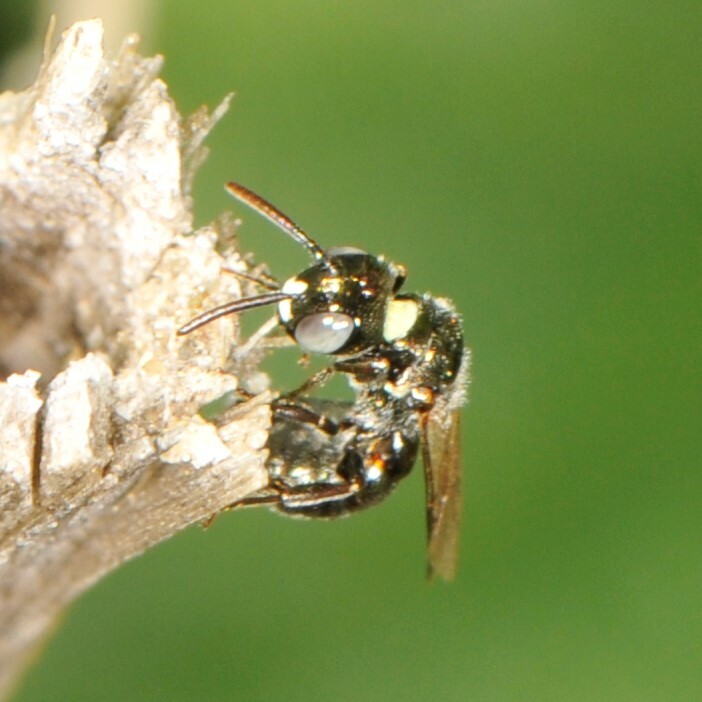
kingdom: Animalia
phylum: Arthropoda
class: Insecta
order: Hymenoptera
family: Apidae
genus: Zadontomerus
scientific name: Zadontomerus
